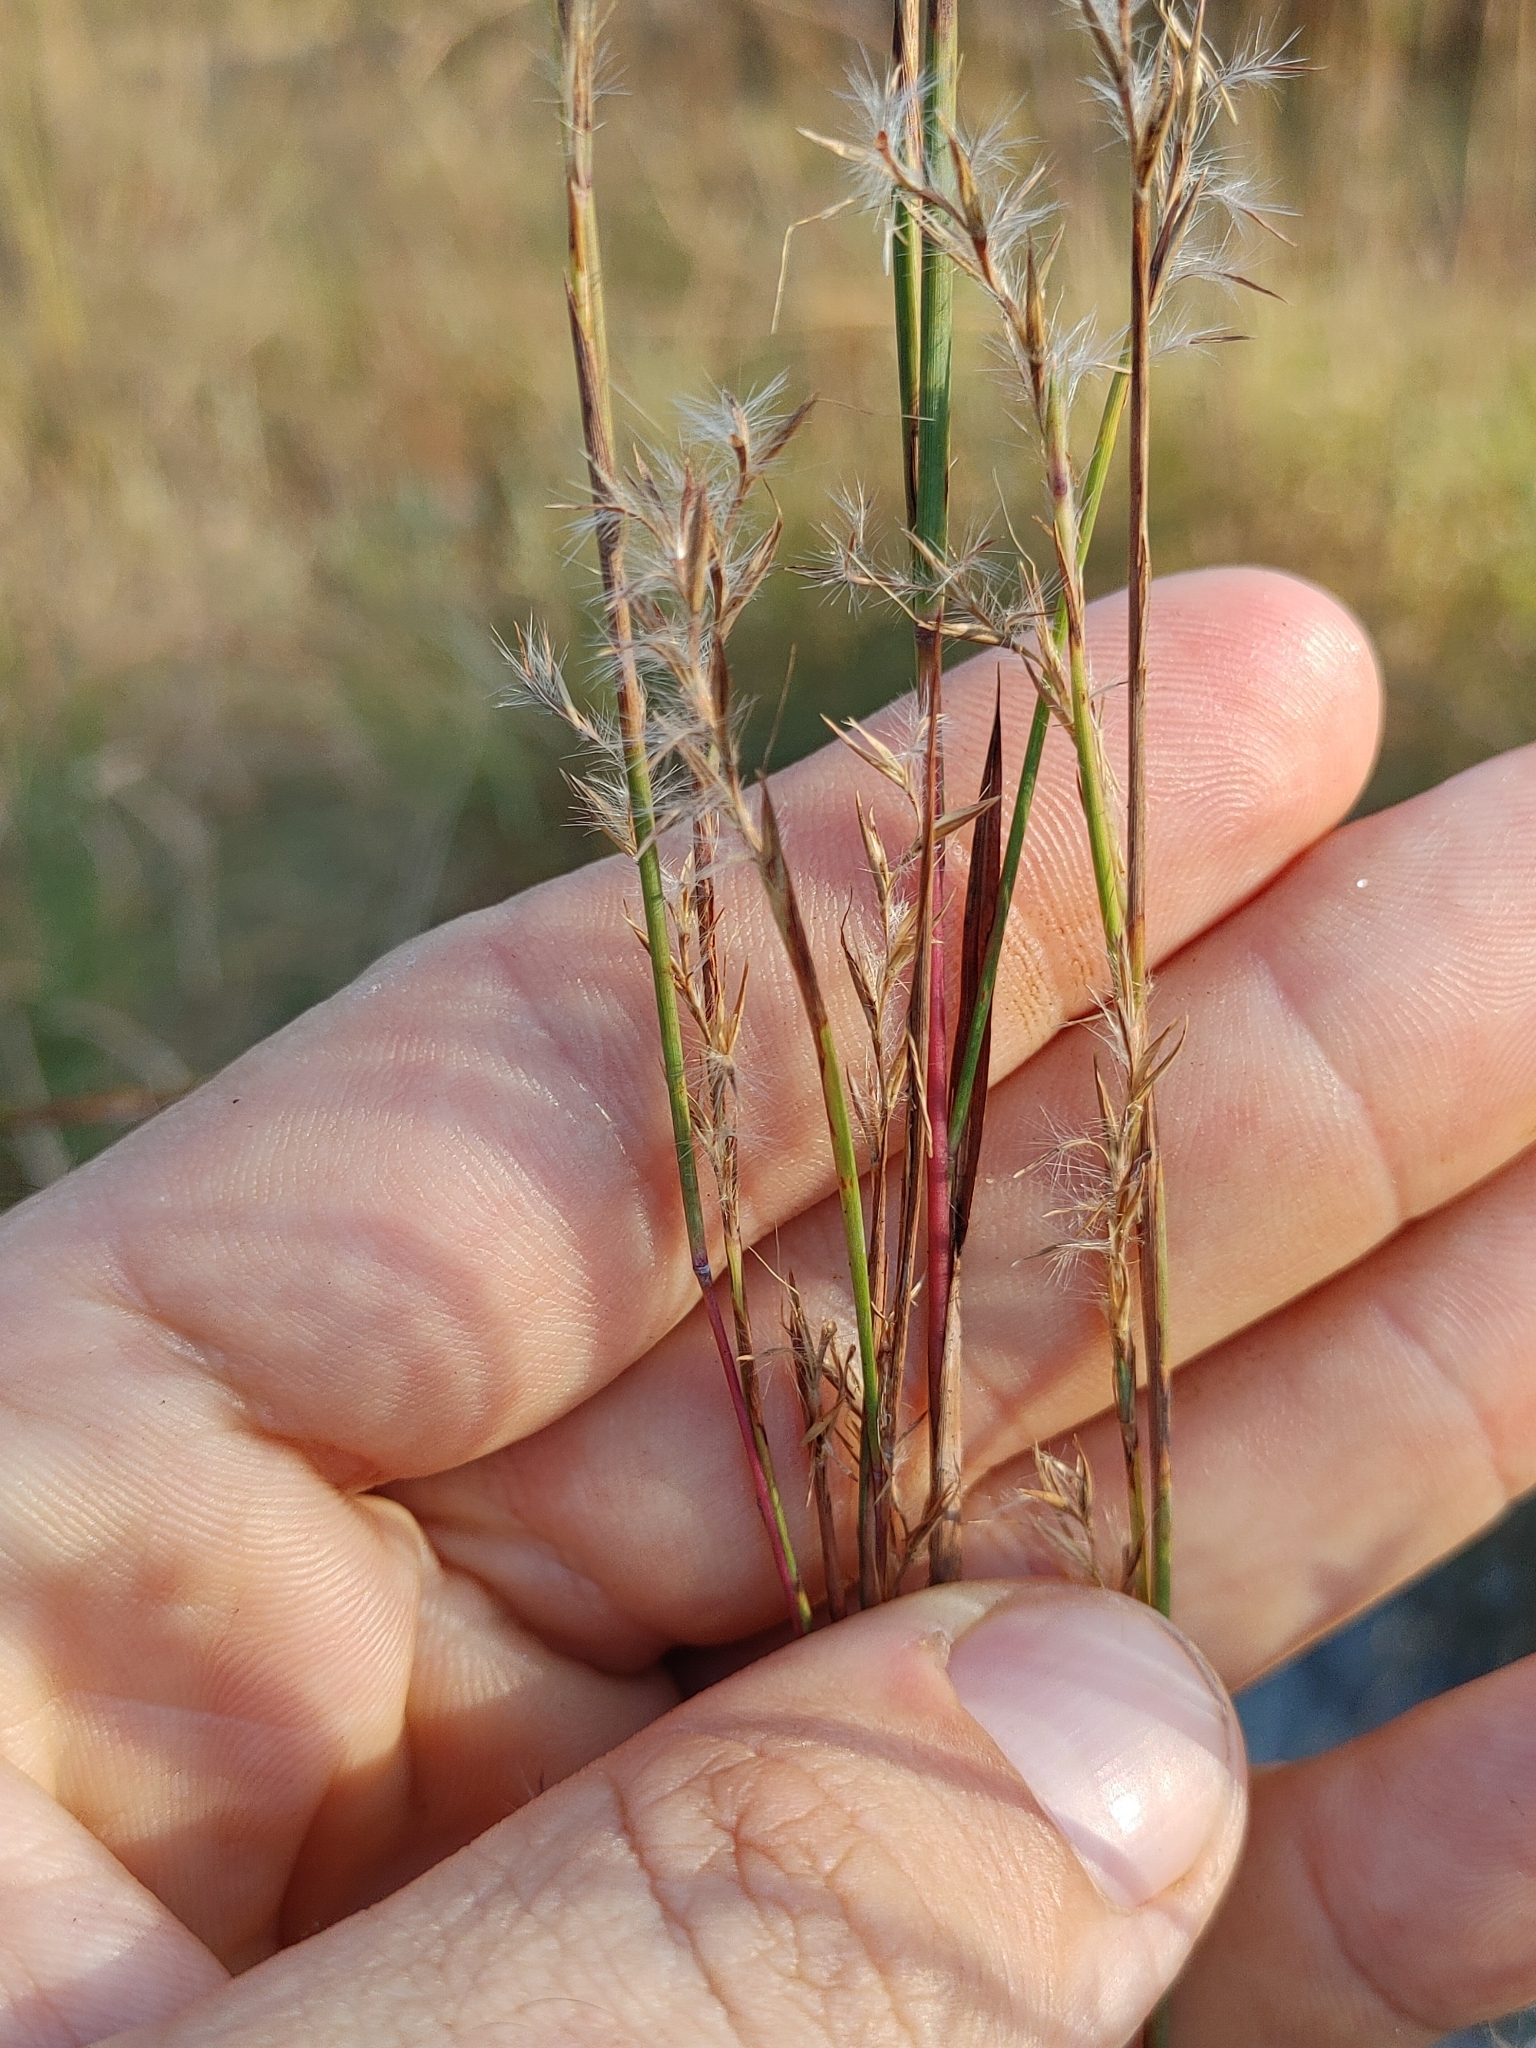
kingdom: Plantae
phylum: Tracheophyta
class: Liliopsida
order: Poales
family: Poaceae
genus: Schizachyrium
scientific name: Schizachyrium scoparium
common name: Little bluestem
